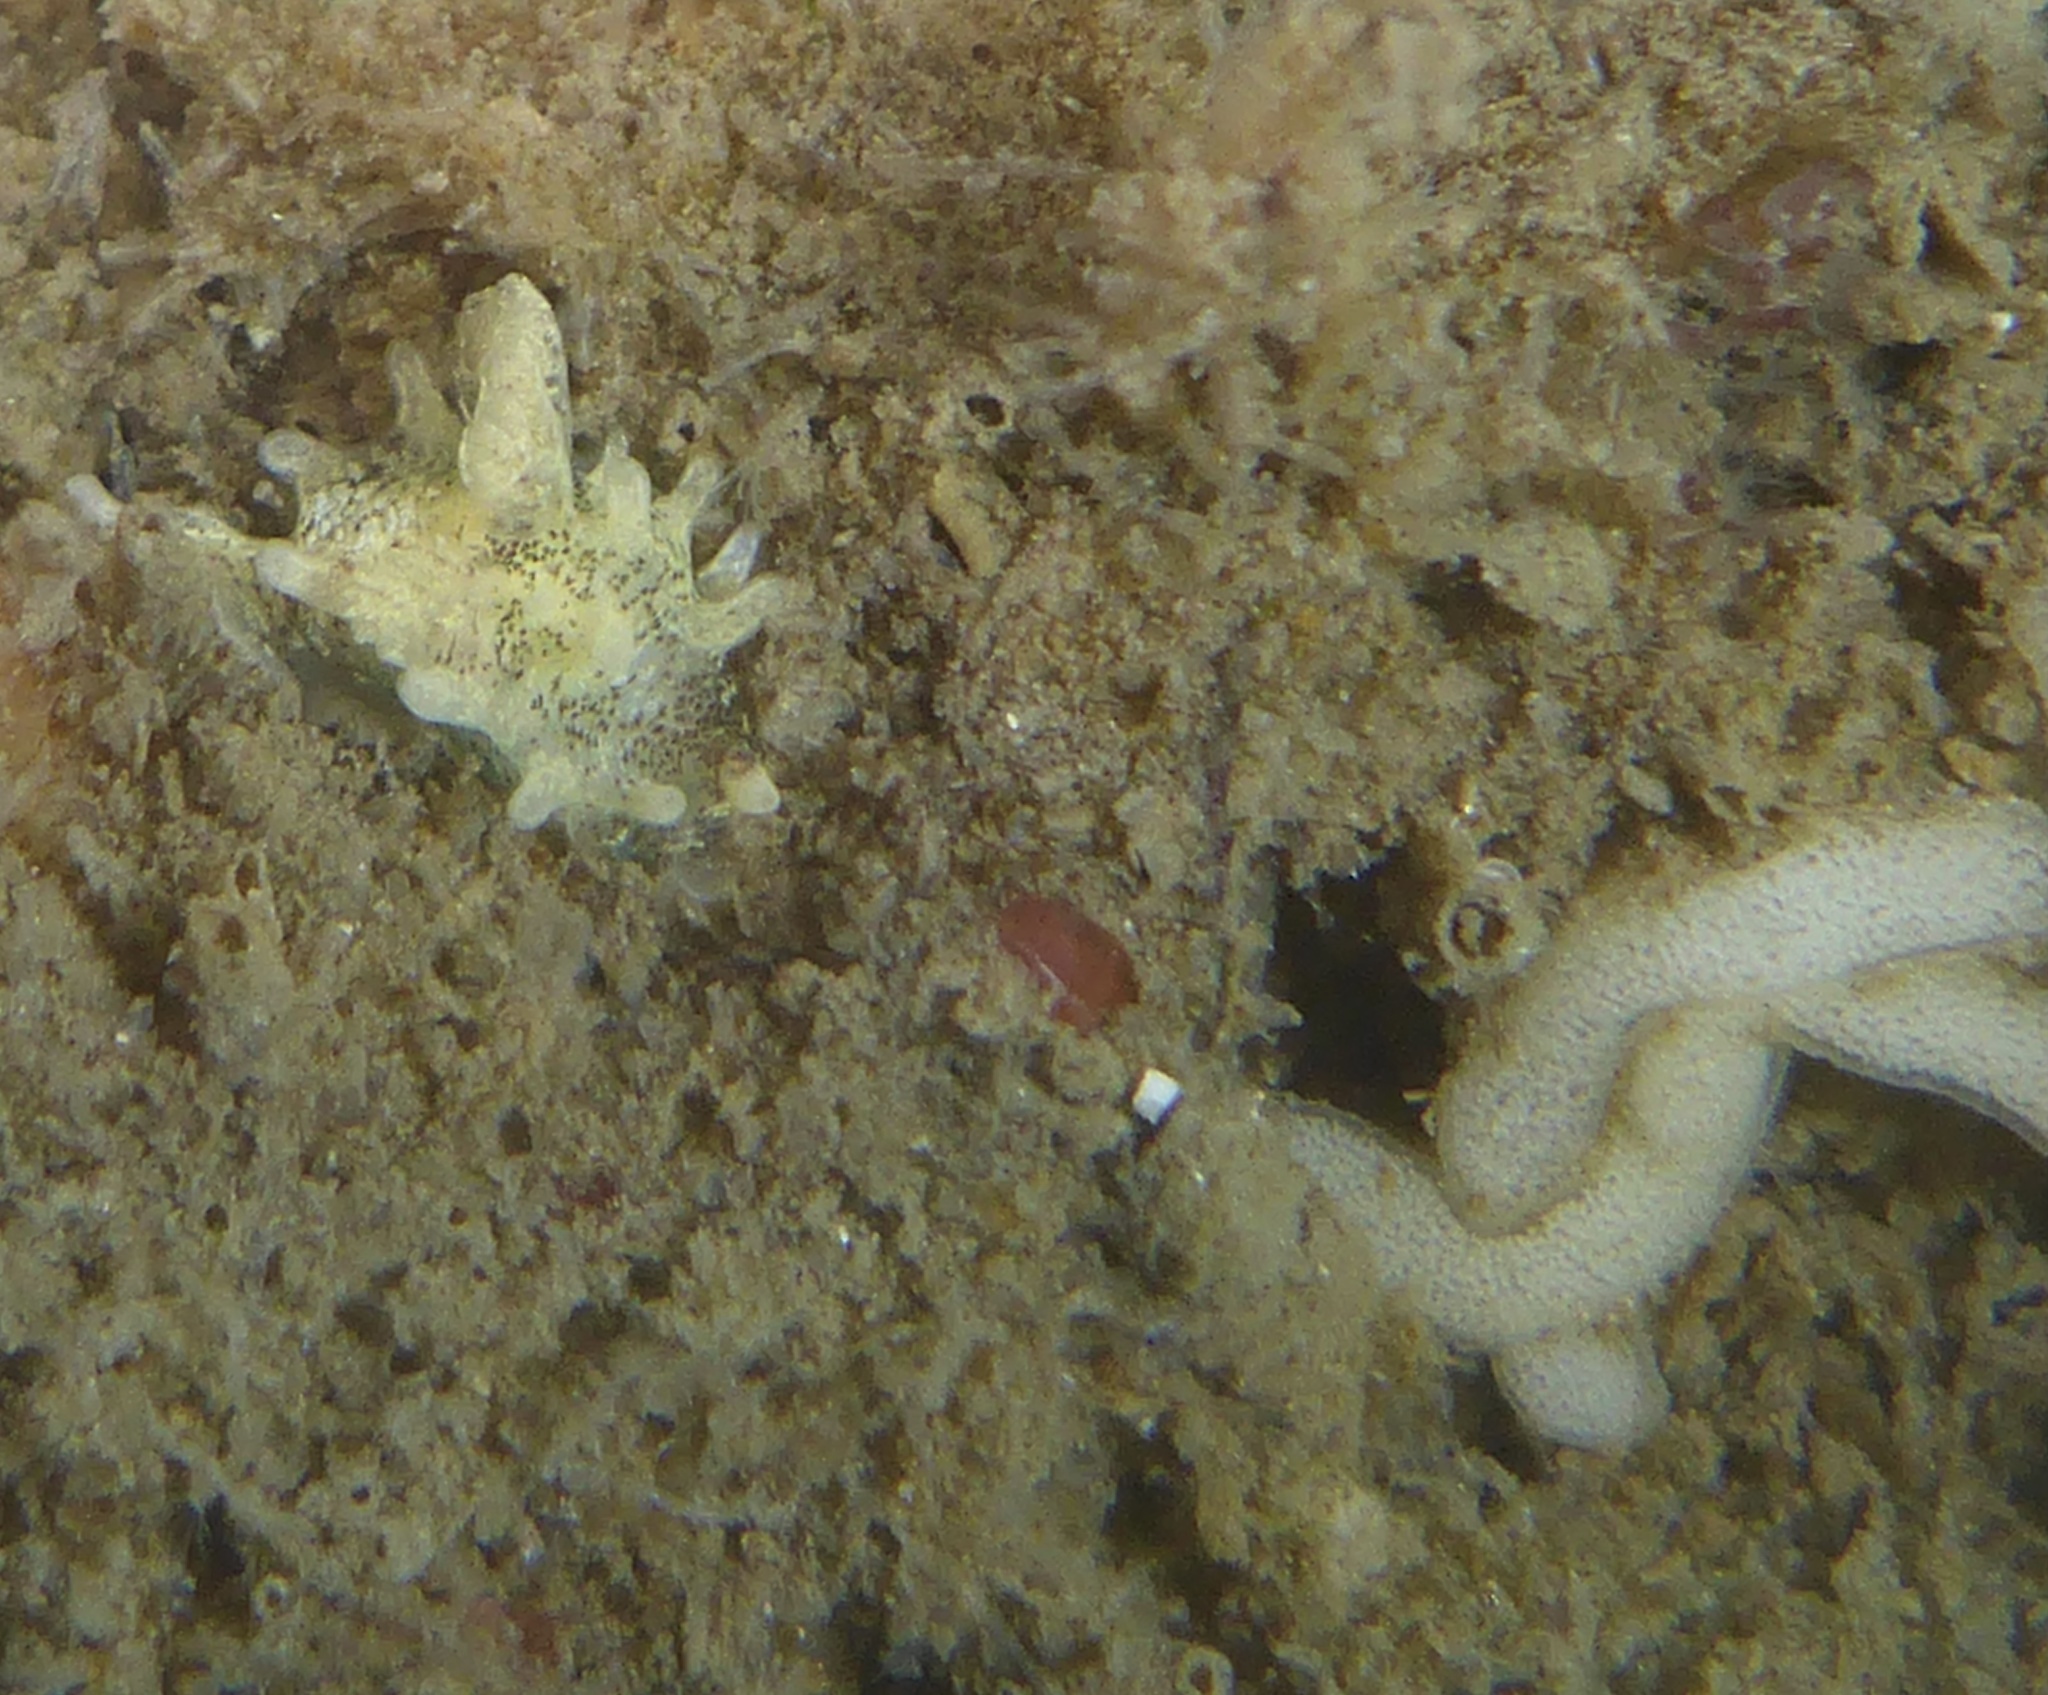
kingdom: Animalia
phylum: Mollusca
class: Gastropoda
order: Nudibranchia
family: Goniodorididae
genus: Okenia
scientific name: Okenia
